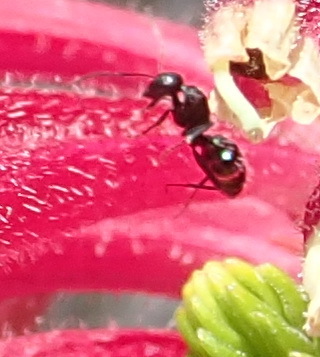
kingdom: Animalia
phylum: Arthropoda
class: Insecta
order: Hymenoptera
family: Formicidae
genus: Camponotus
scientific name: Camponotus niveosetosus
